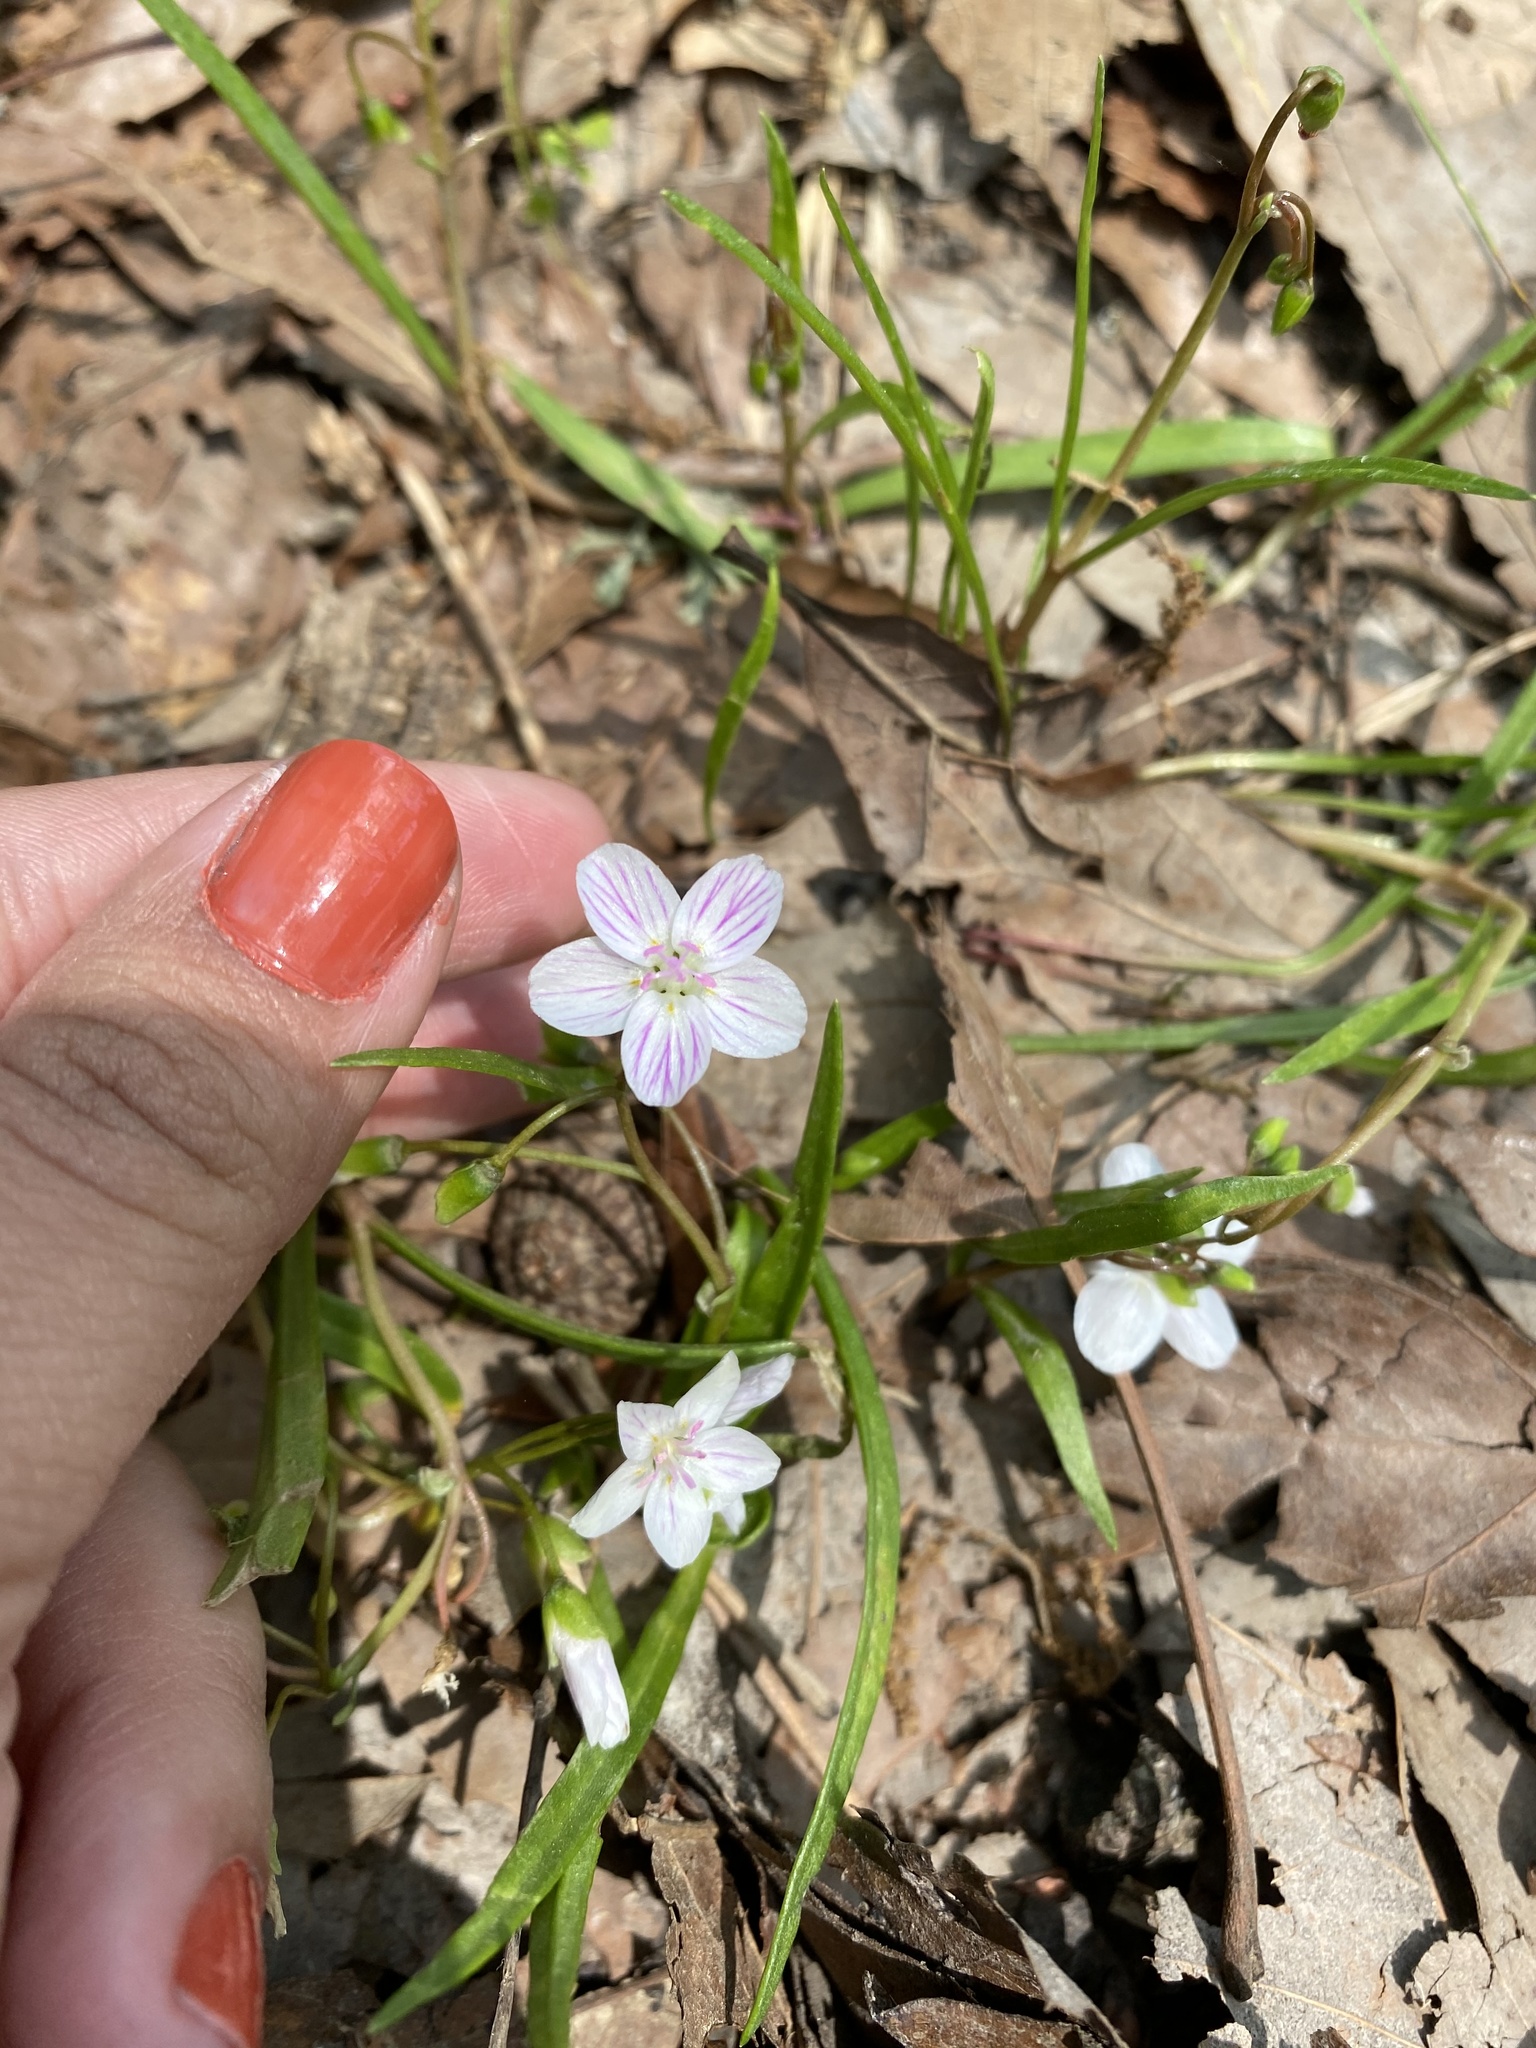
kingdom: Plantae
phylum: Tracheophyta
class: Magnoliopsida
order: Caryophyllales
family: Montiaceae
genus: Claytonia
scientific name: Claytonia virginica
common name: Virginia springbeauty
